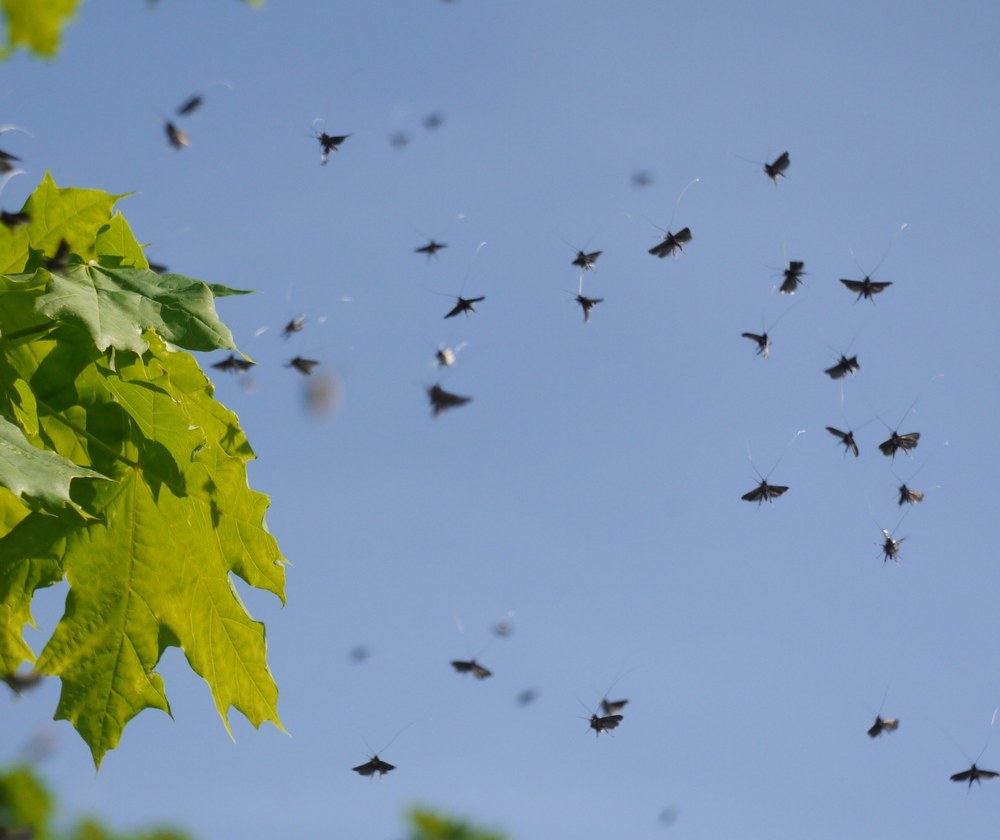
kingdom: Animalia
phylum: Arthropoda
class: Insecta
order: Lepidoptera
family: Adelidae
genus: Adela
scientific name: Adela viridella
